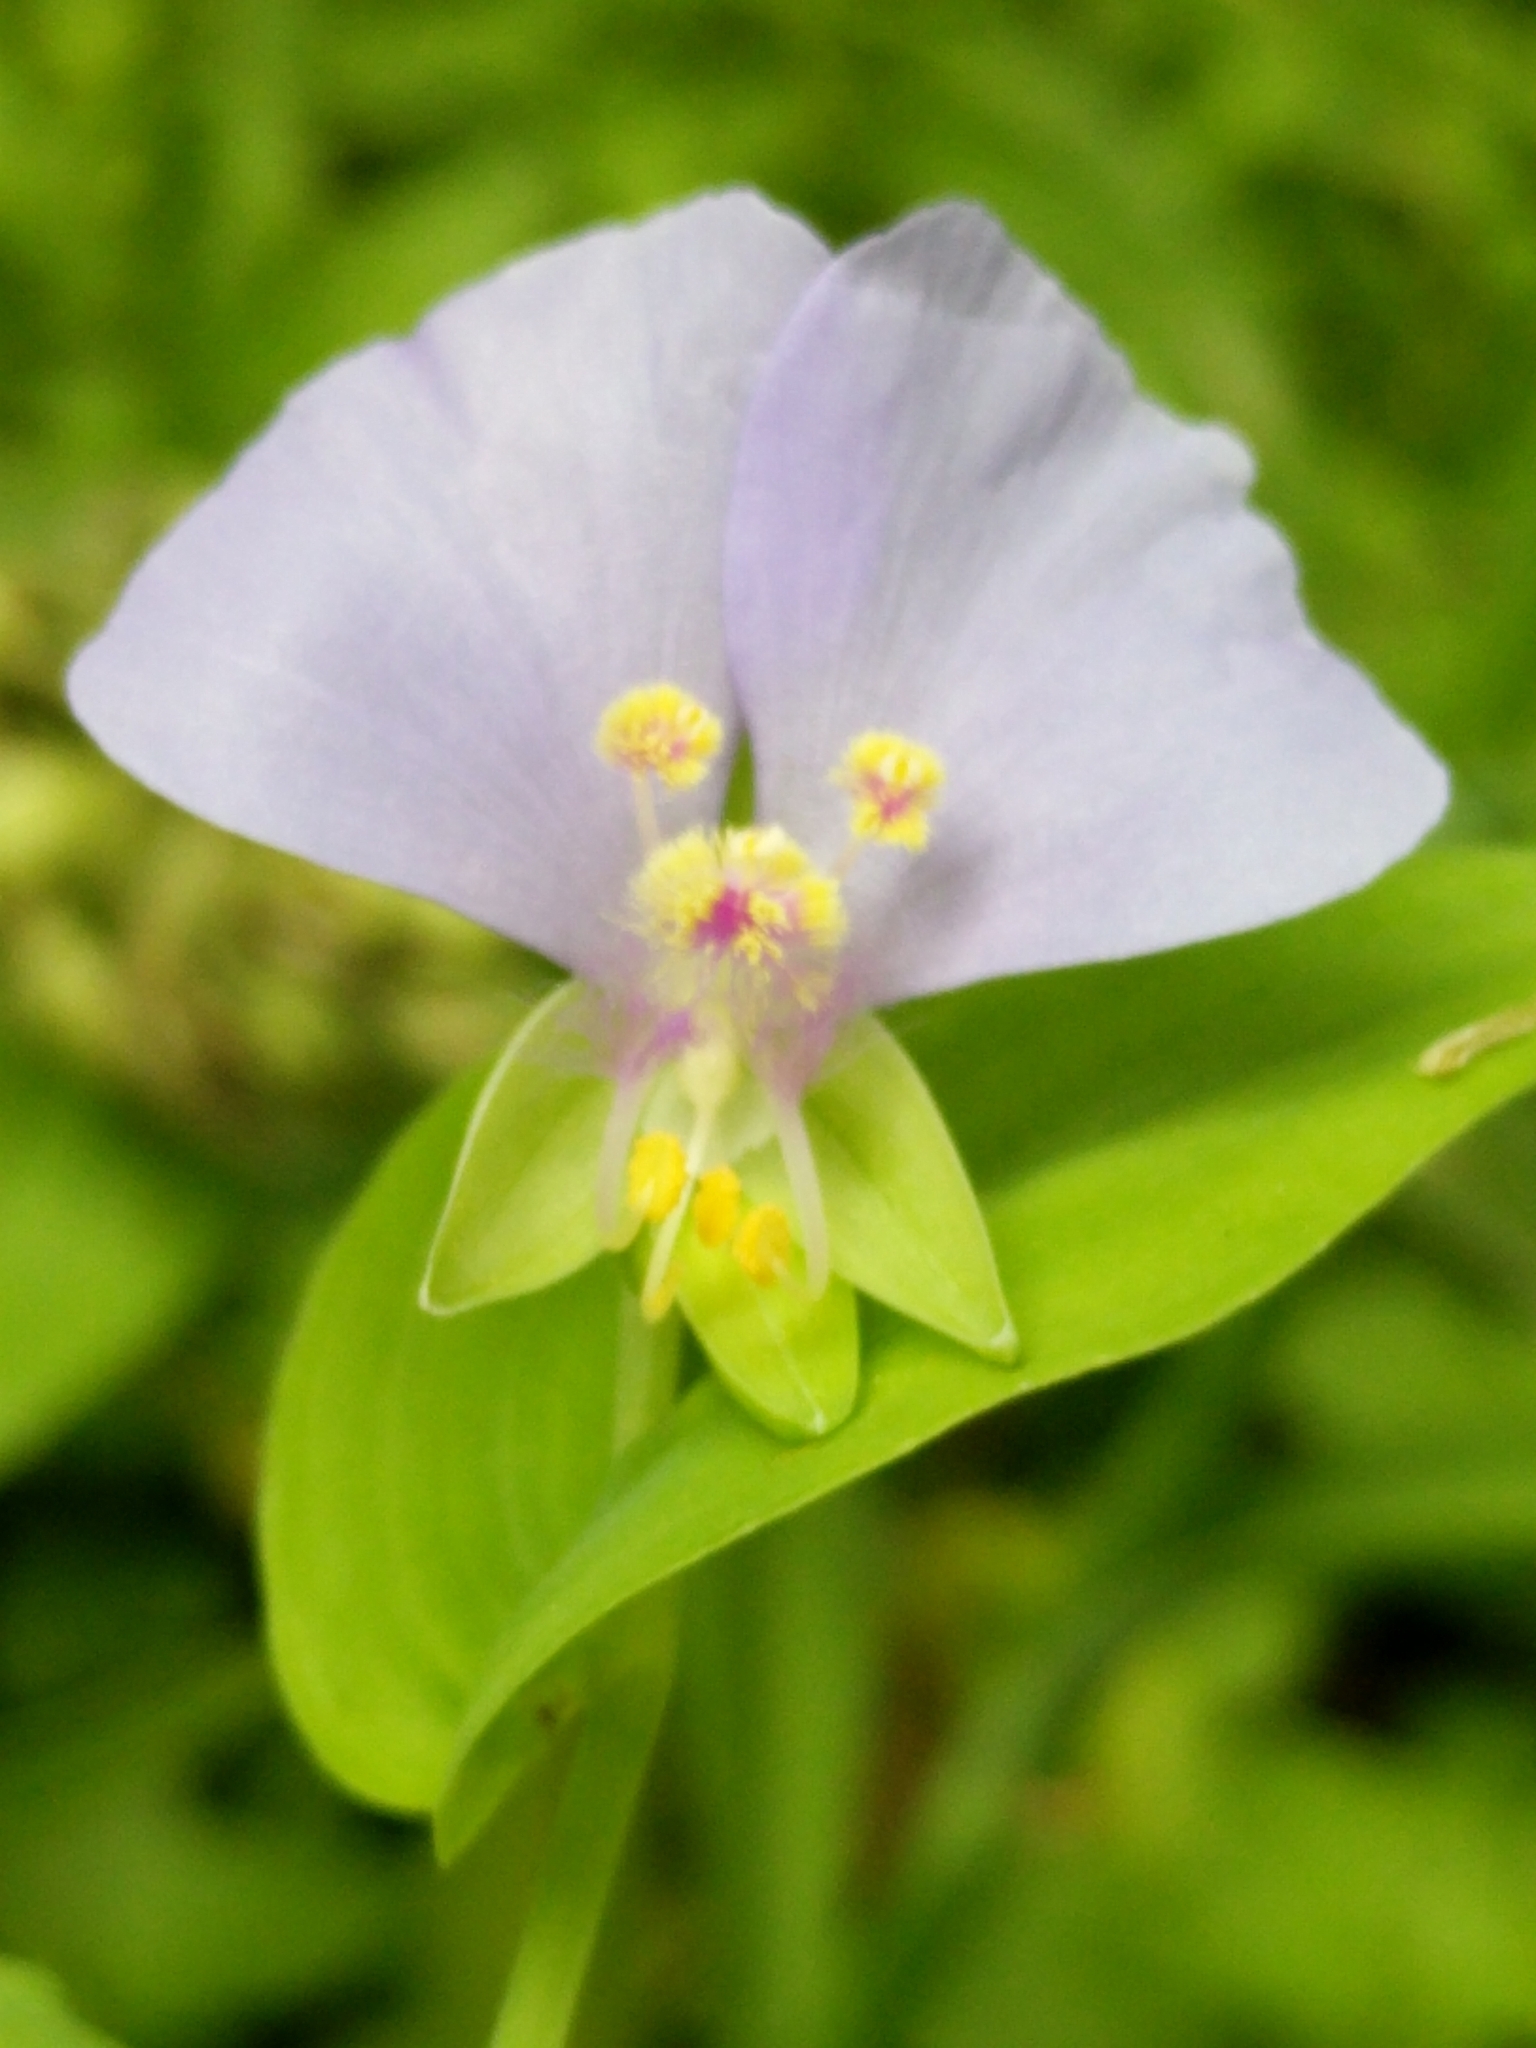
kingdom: Plantae
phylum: Tracheophyta
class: Liliopsida
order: Commelinales
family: Commelinaceae
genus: Tinantia
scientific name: Tinantia anomala
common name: False dayflower
